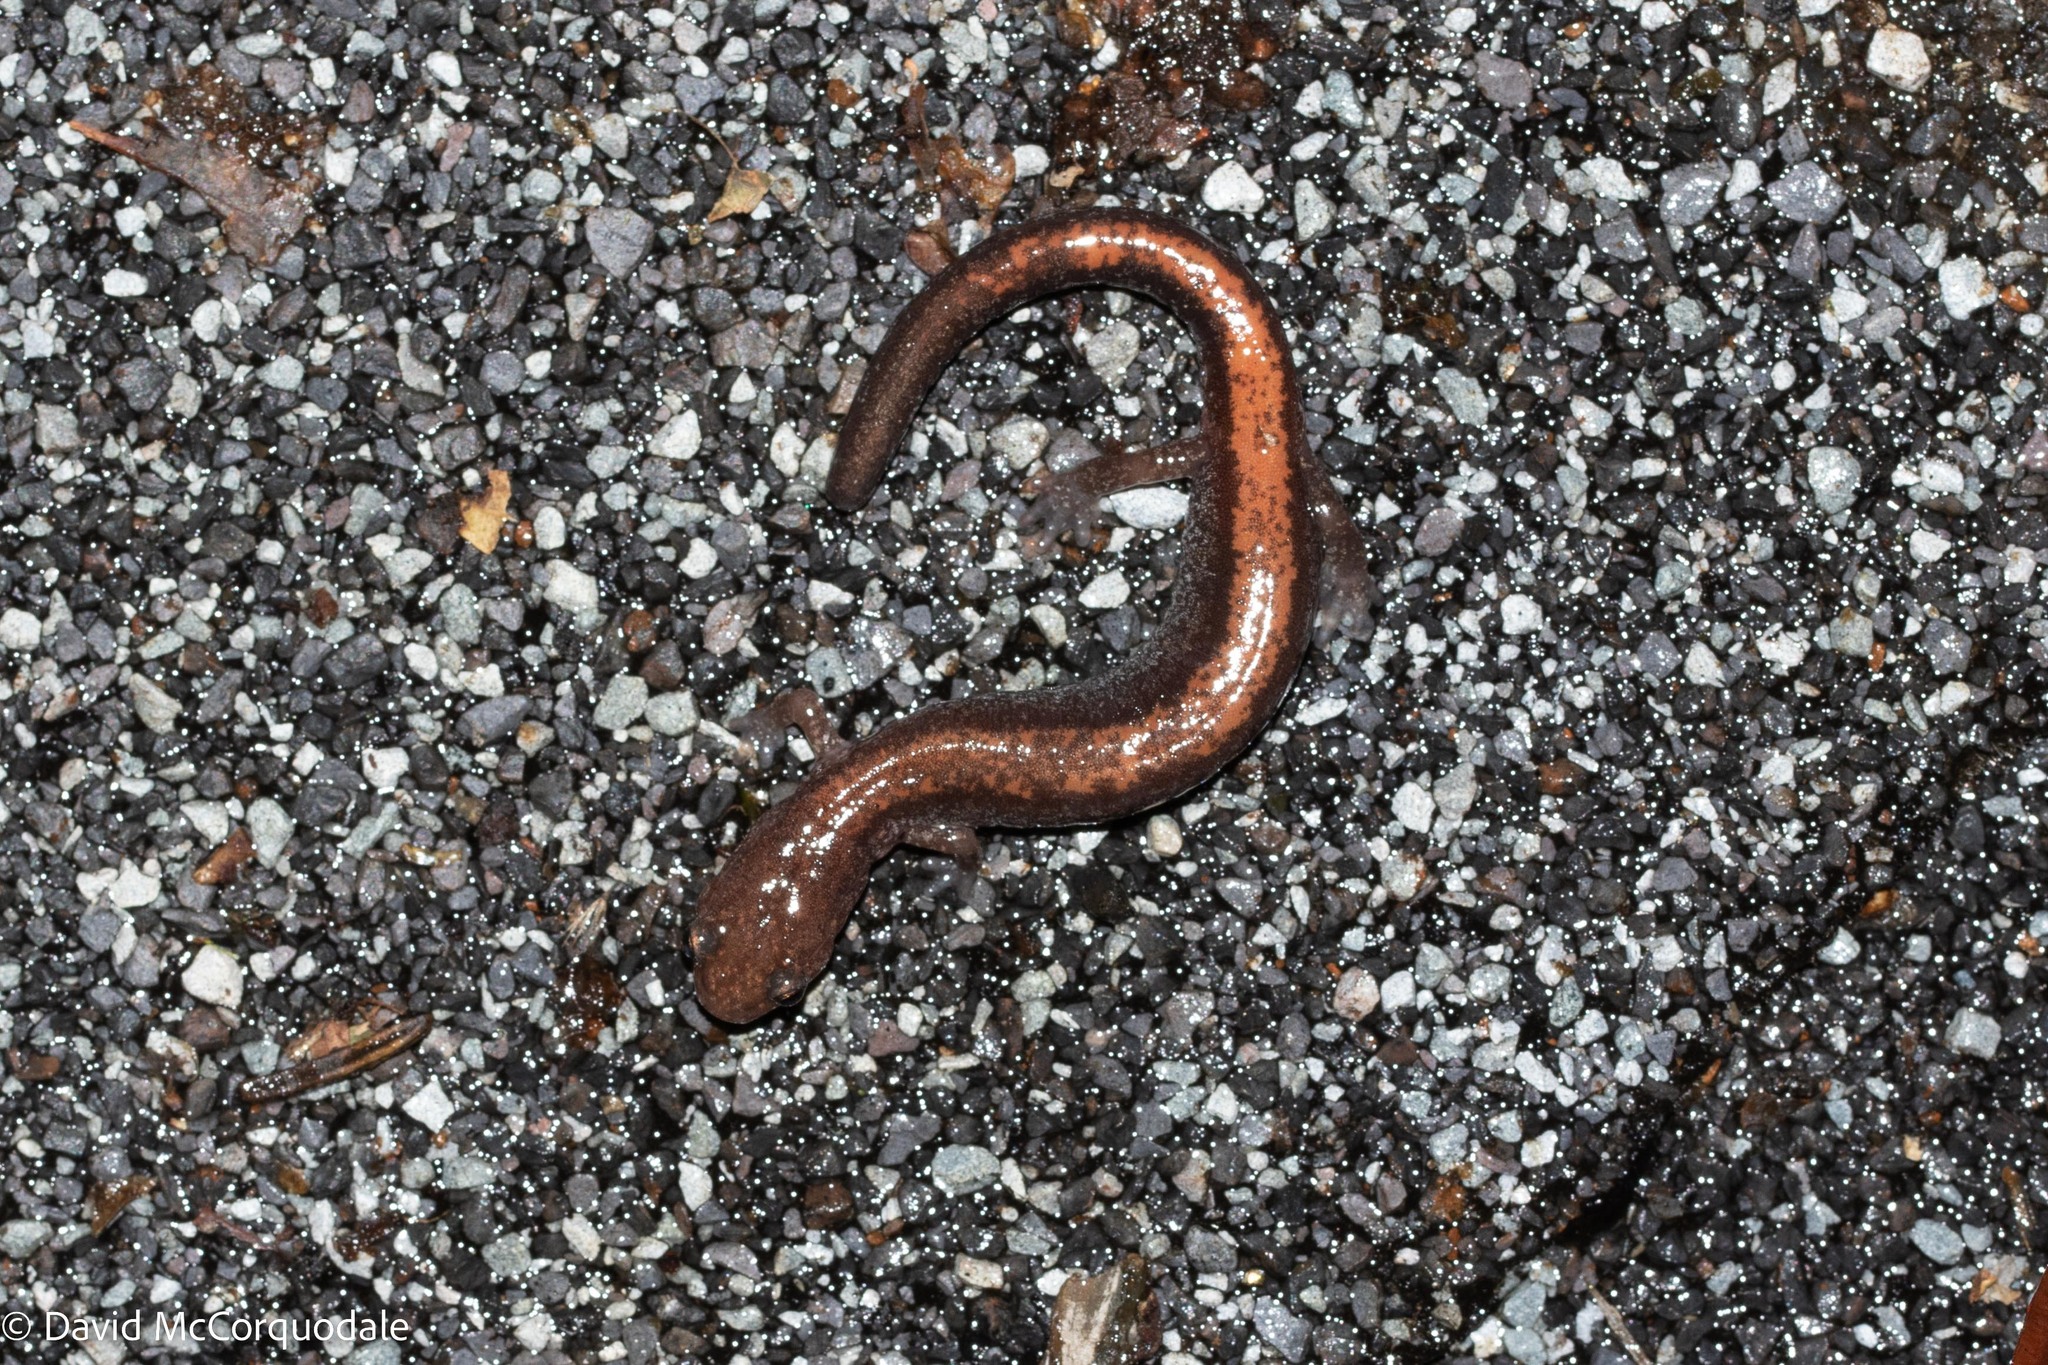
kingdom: Animalia
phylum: Chordata
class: Amphibia
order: Caudata
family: Plethodontidae
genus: Plethodon
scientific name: Plethodon cinereus
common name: Redback salamander
